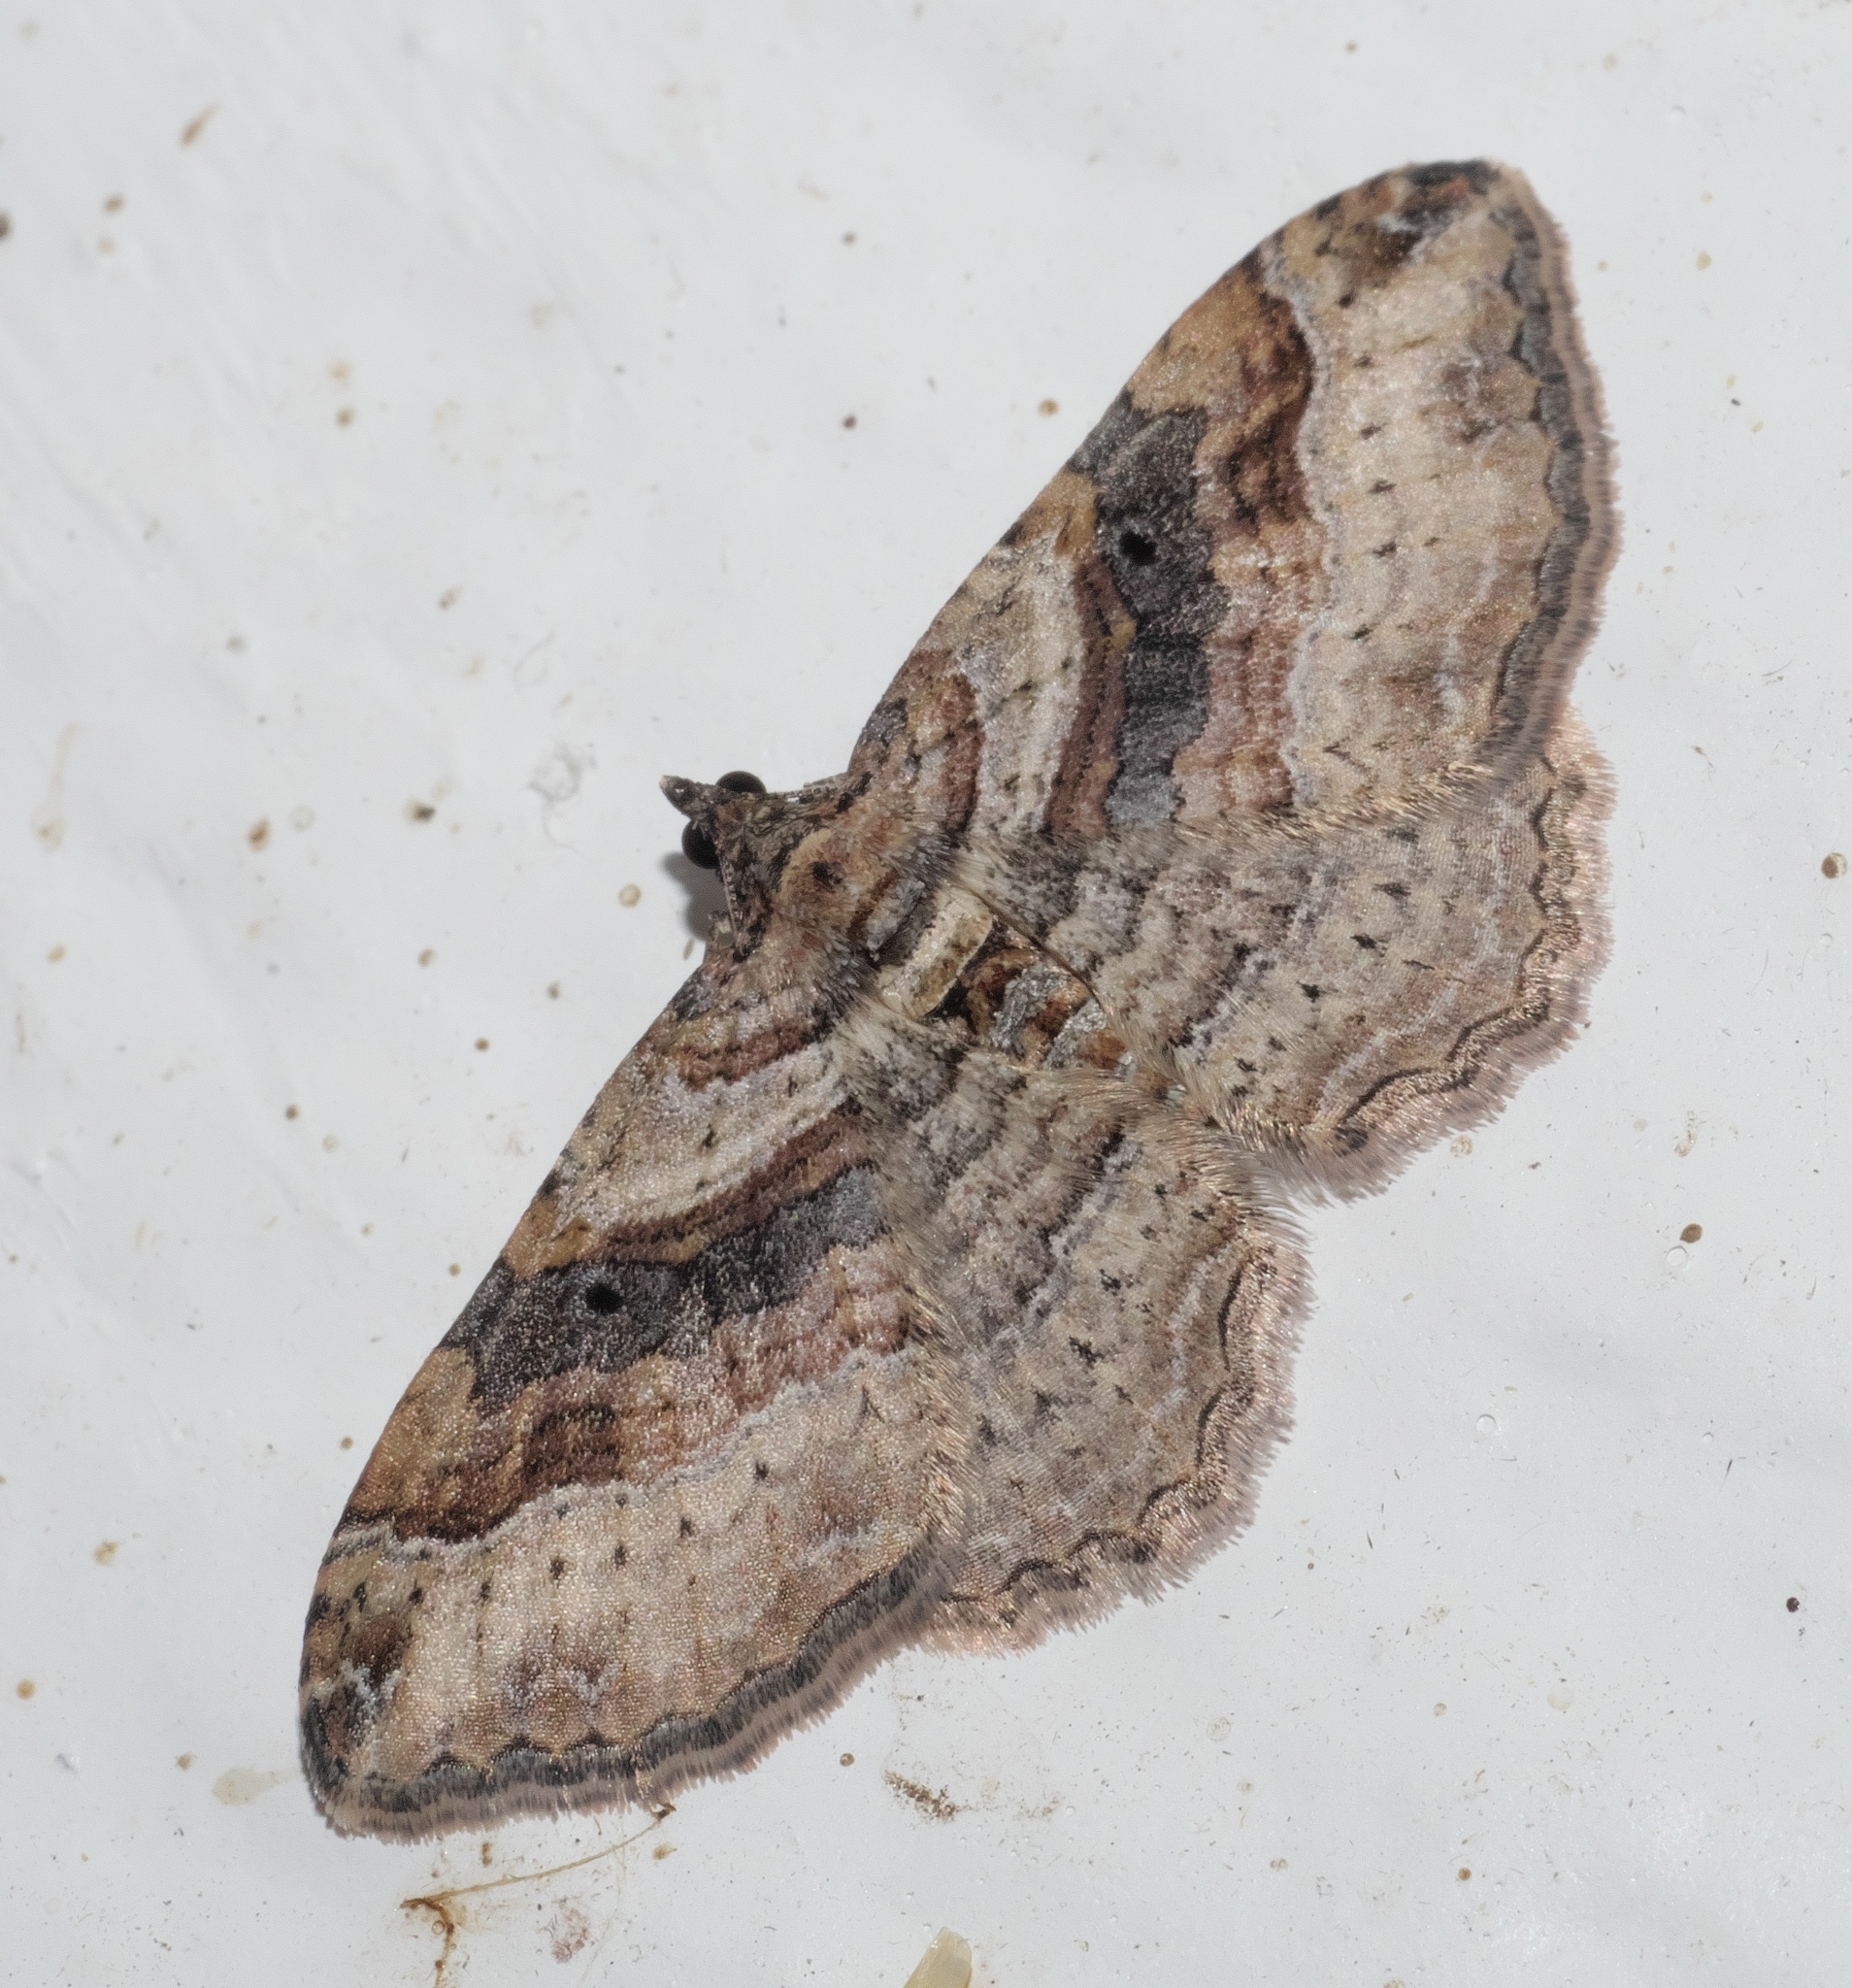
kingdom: Animalia
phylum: Arthropoda
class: Insecta
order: Lepidoptera
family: Geometridae
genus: Costaconvexa
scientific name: Costaconvexa centrostrigaria
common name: Bent-line carpet
